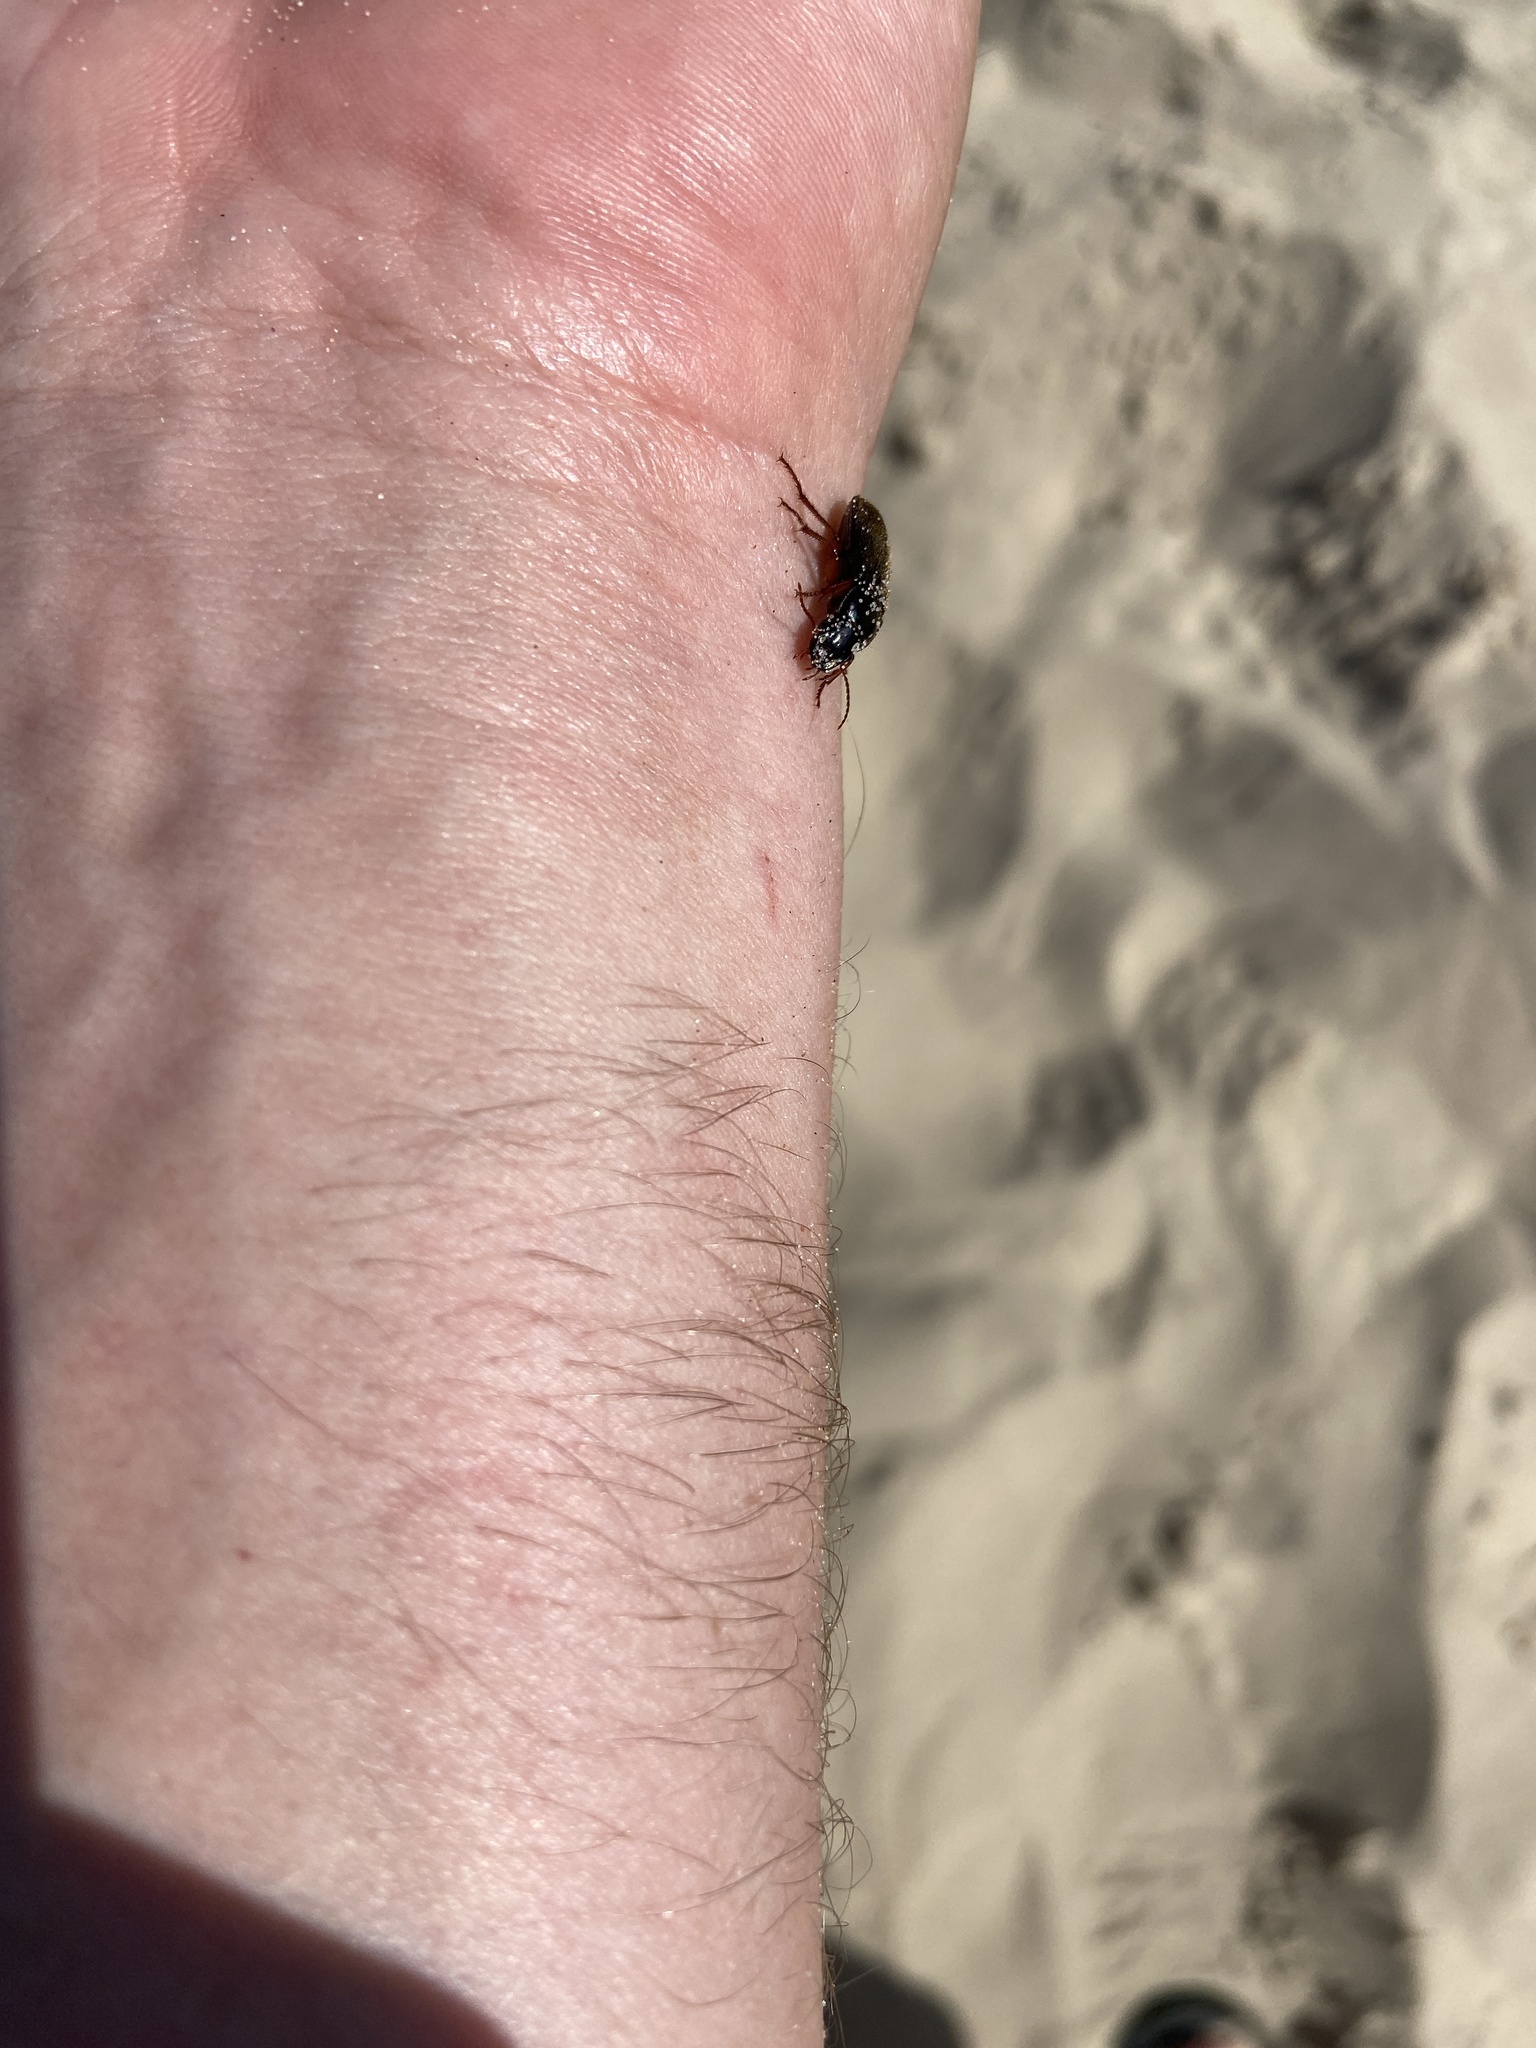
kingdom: Animalia
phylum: Arthropoda
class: Insecta
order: Coleoptera
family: Carabidae
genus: Harpalus
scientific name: Harpalus rufipes
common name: Strawberry harp ground beetle
